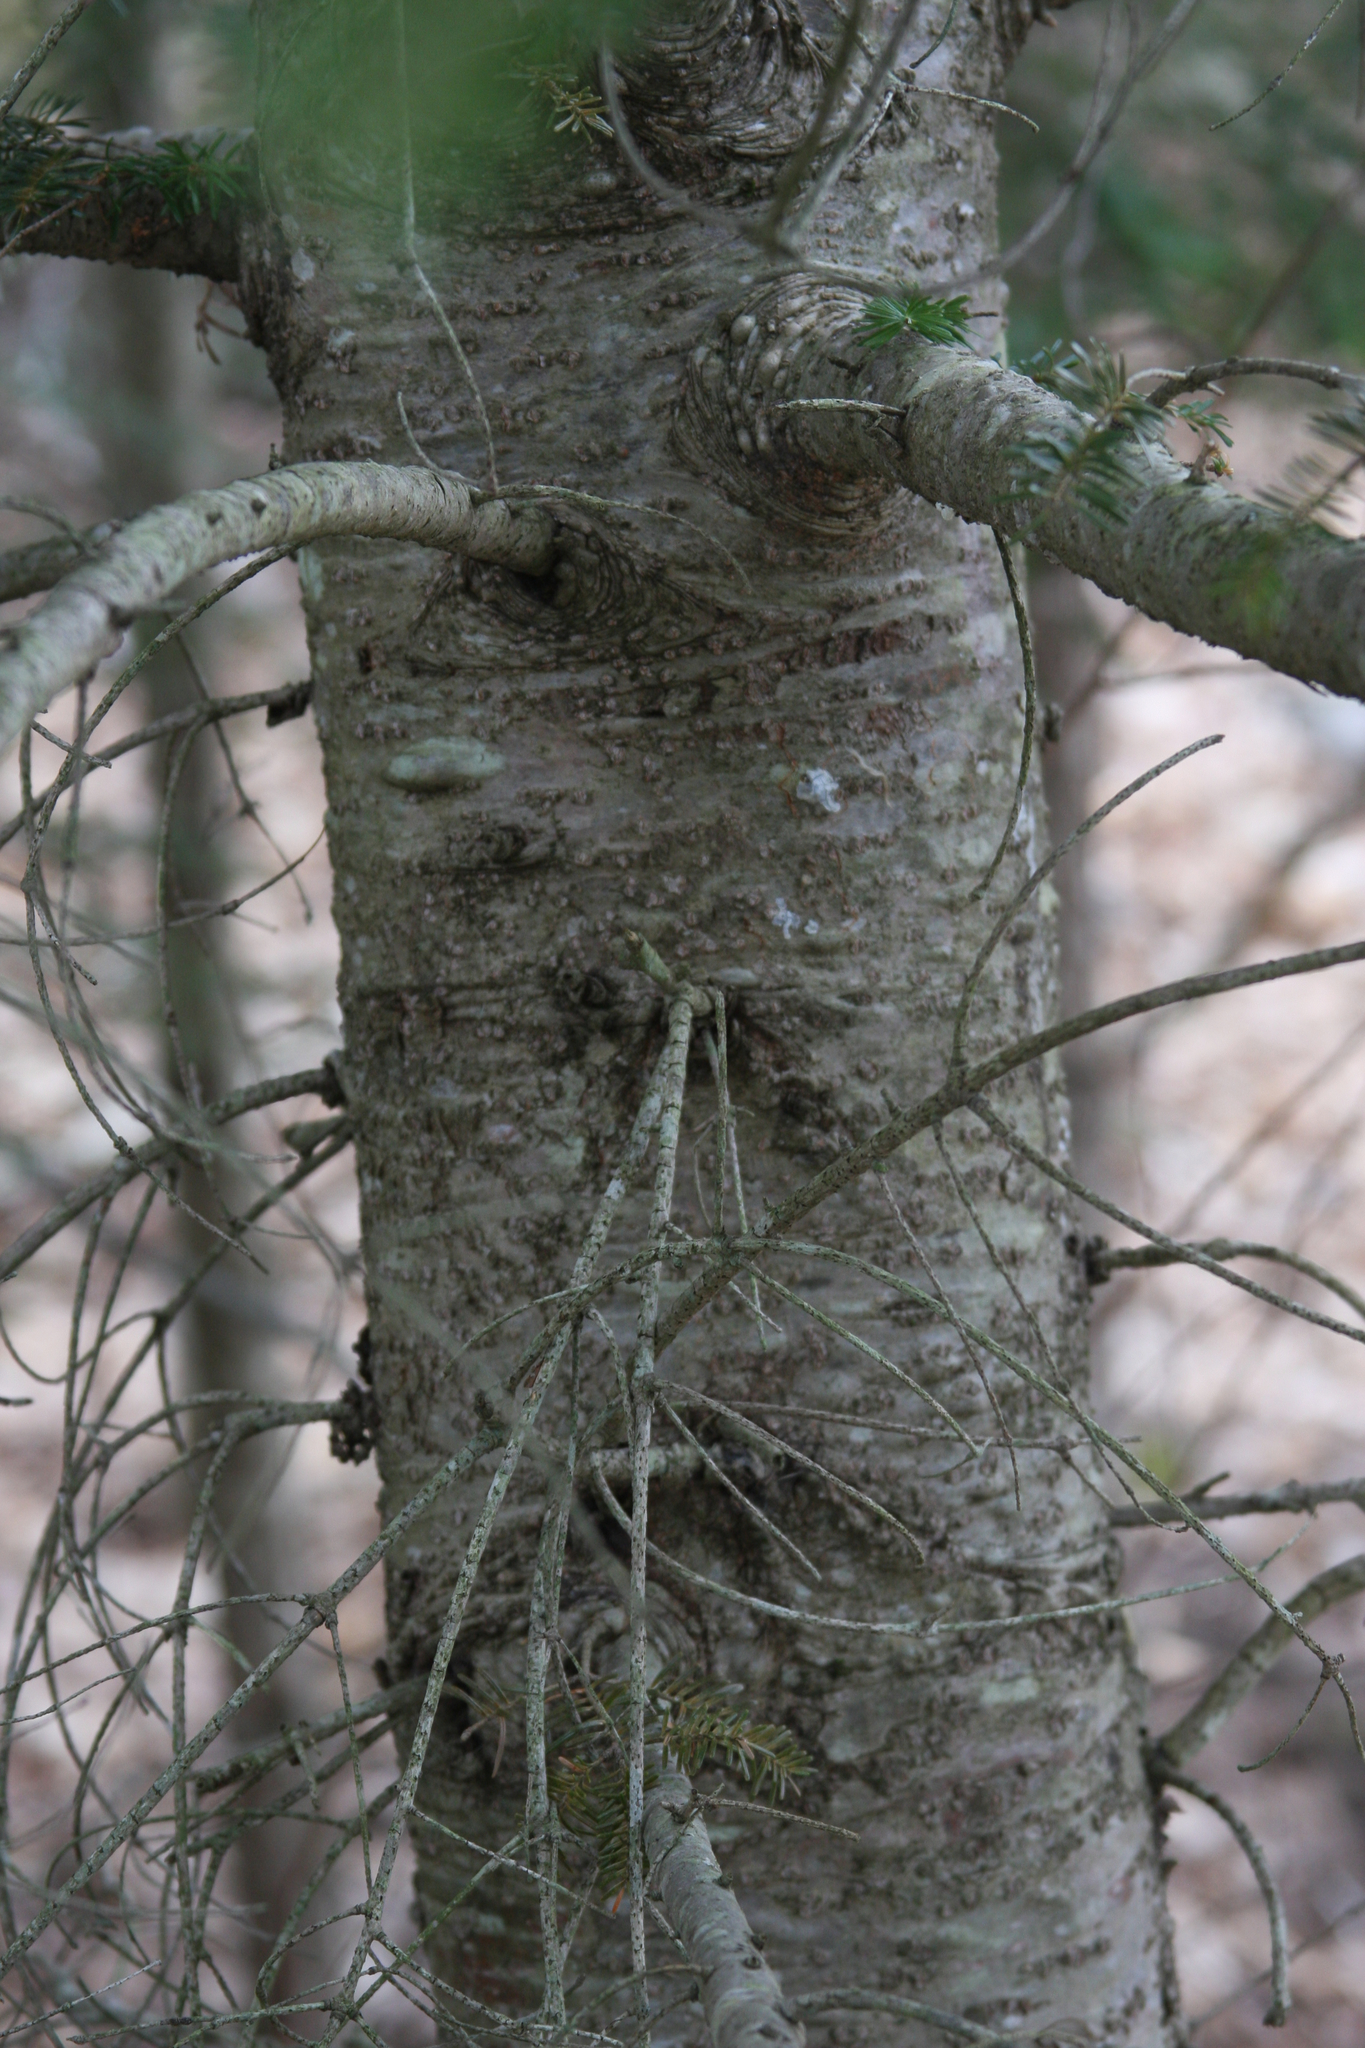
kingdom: Plantae
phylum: Tracheophyta
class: Pinopsida
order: Pinales
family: Pinaceae
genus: Abies
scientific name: Abies balsamea
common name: Balsam fir
